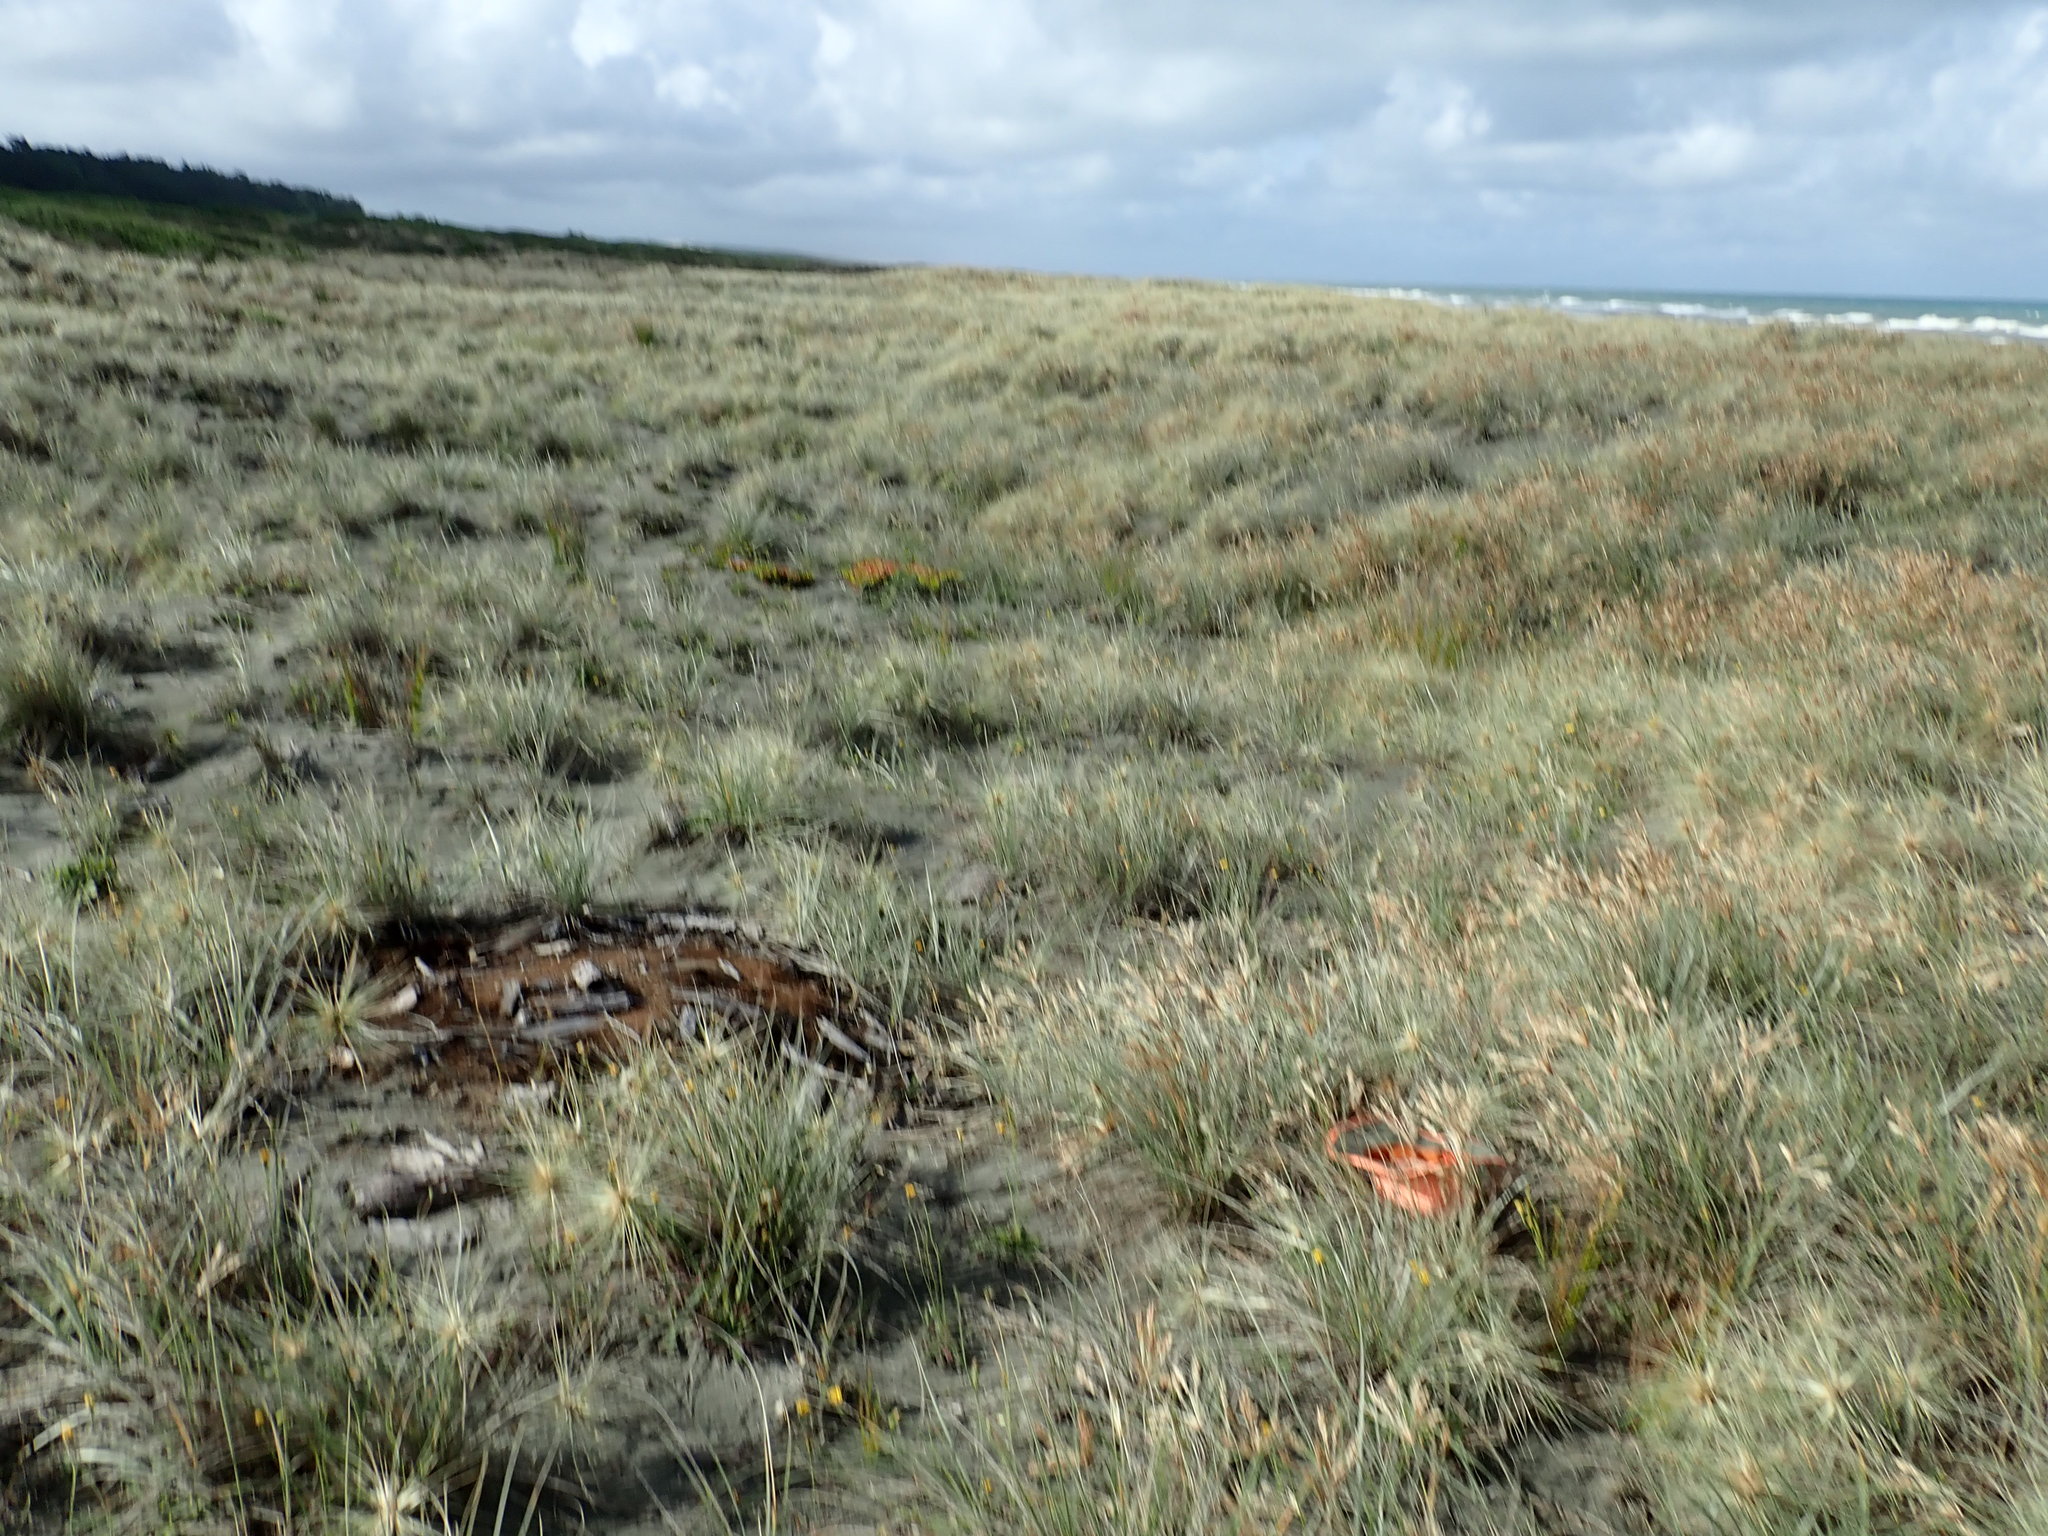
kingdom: Animalia
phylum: Arthropoda
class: Arachnida
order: Araneae
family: Theridiidae
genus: Latrodectus
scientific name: Latrodectus katipo
